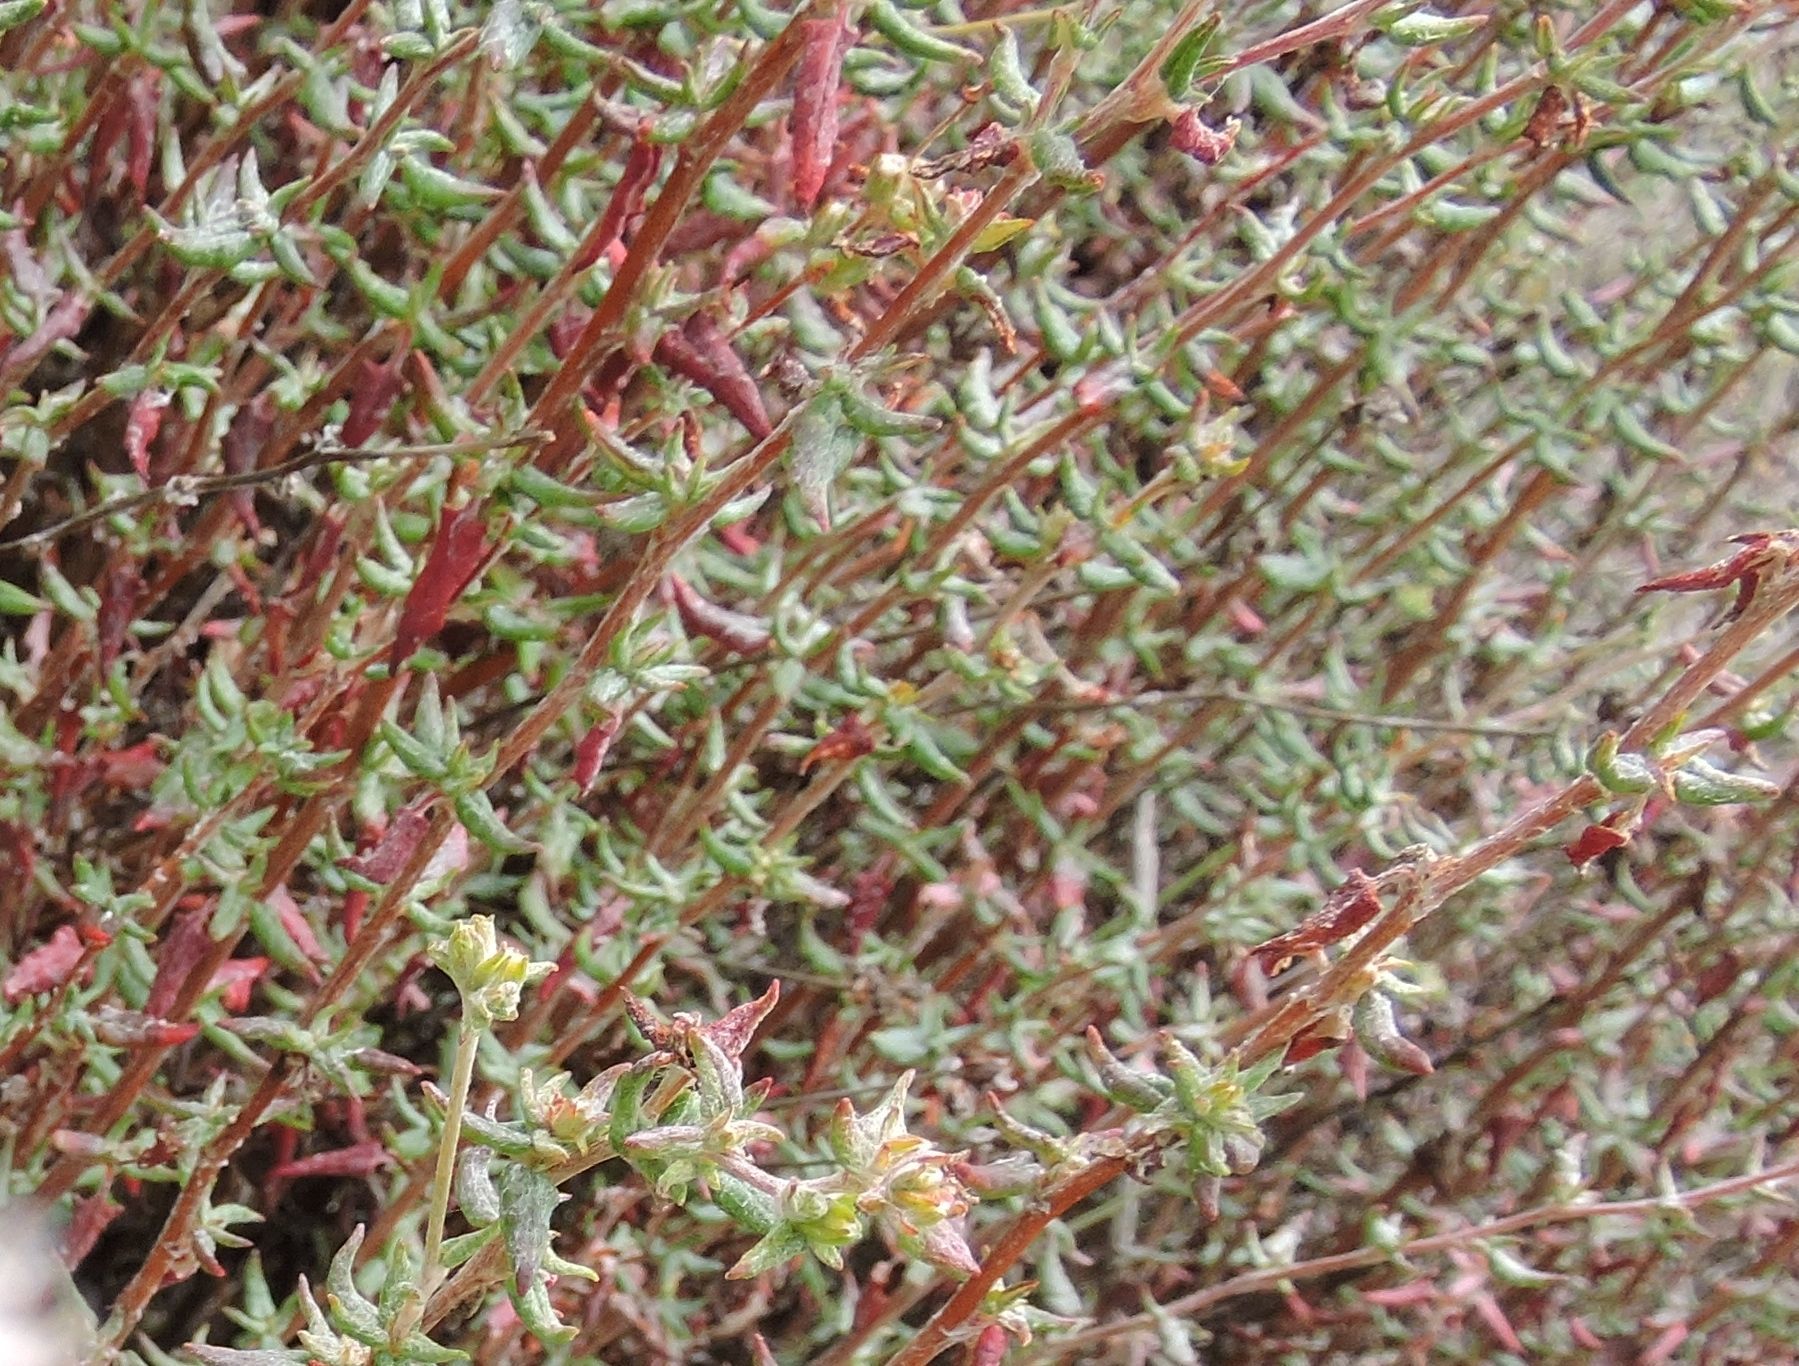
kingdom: Plantae
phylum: Tracheophyta
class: Magnoliopsida
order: Caryophyllales
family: Polygonaceae
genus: Eriogonum
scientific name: Eriogonum parvifolium
